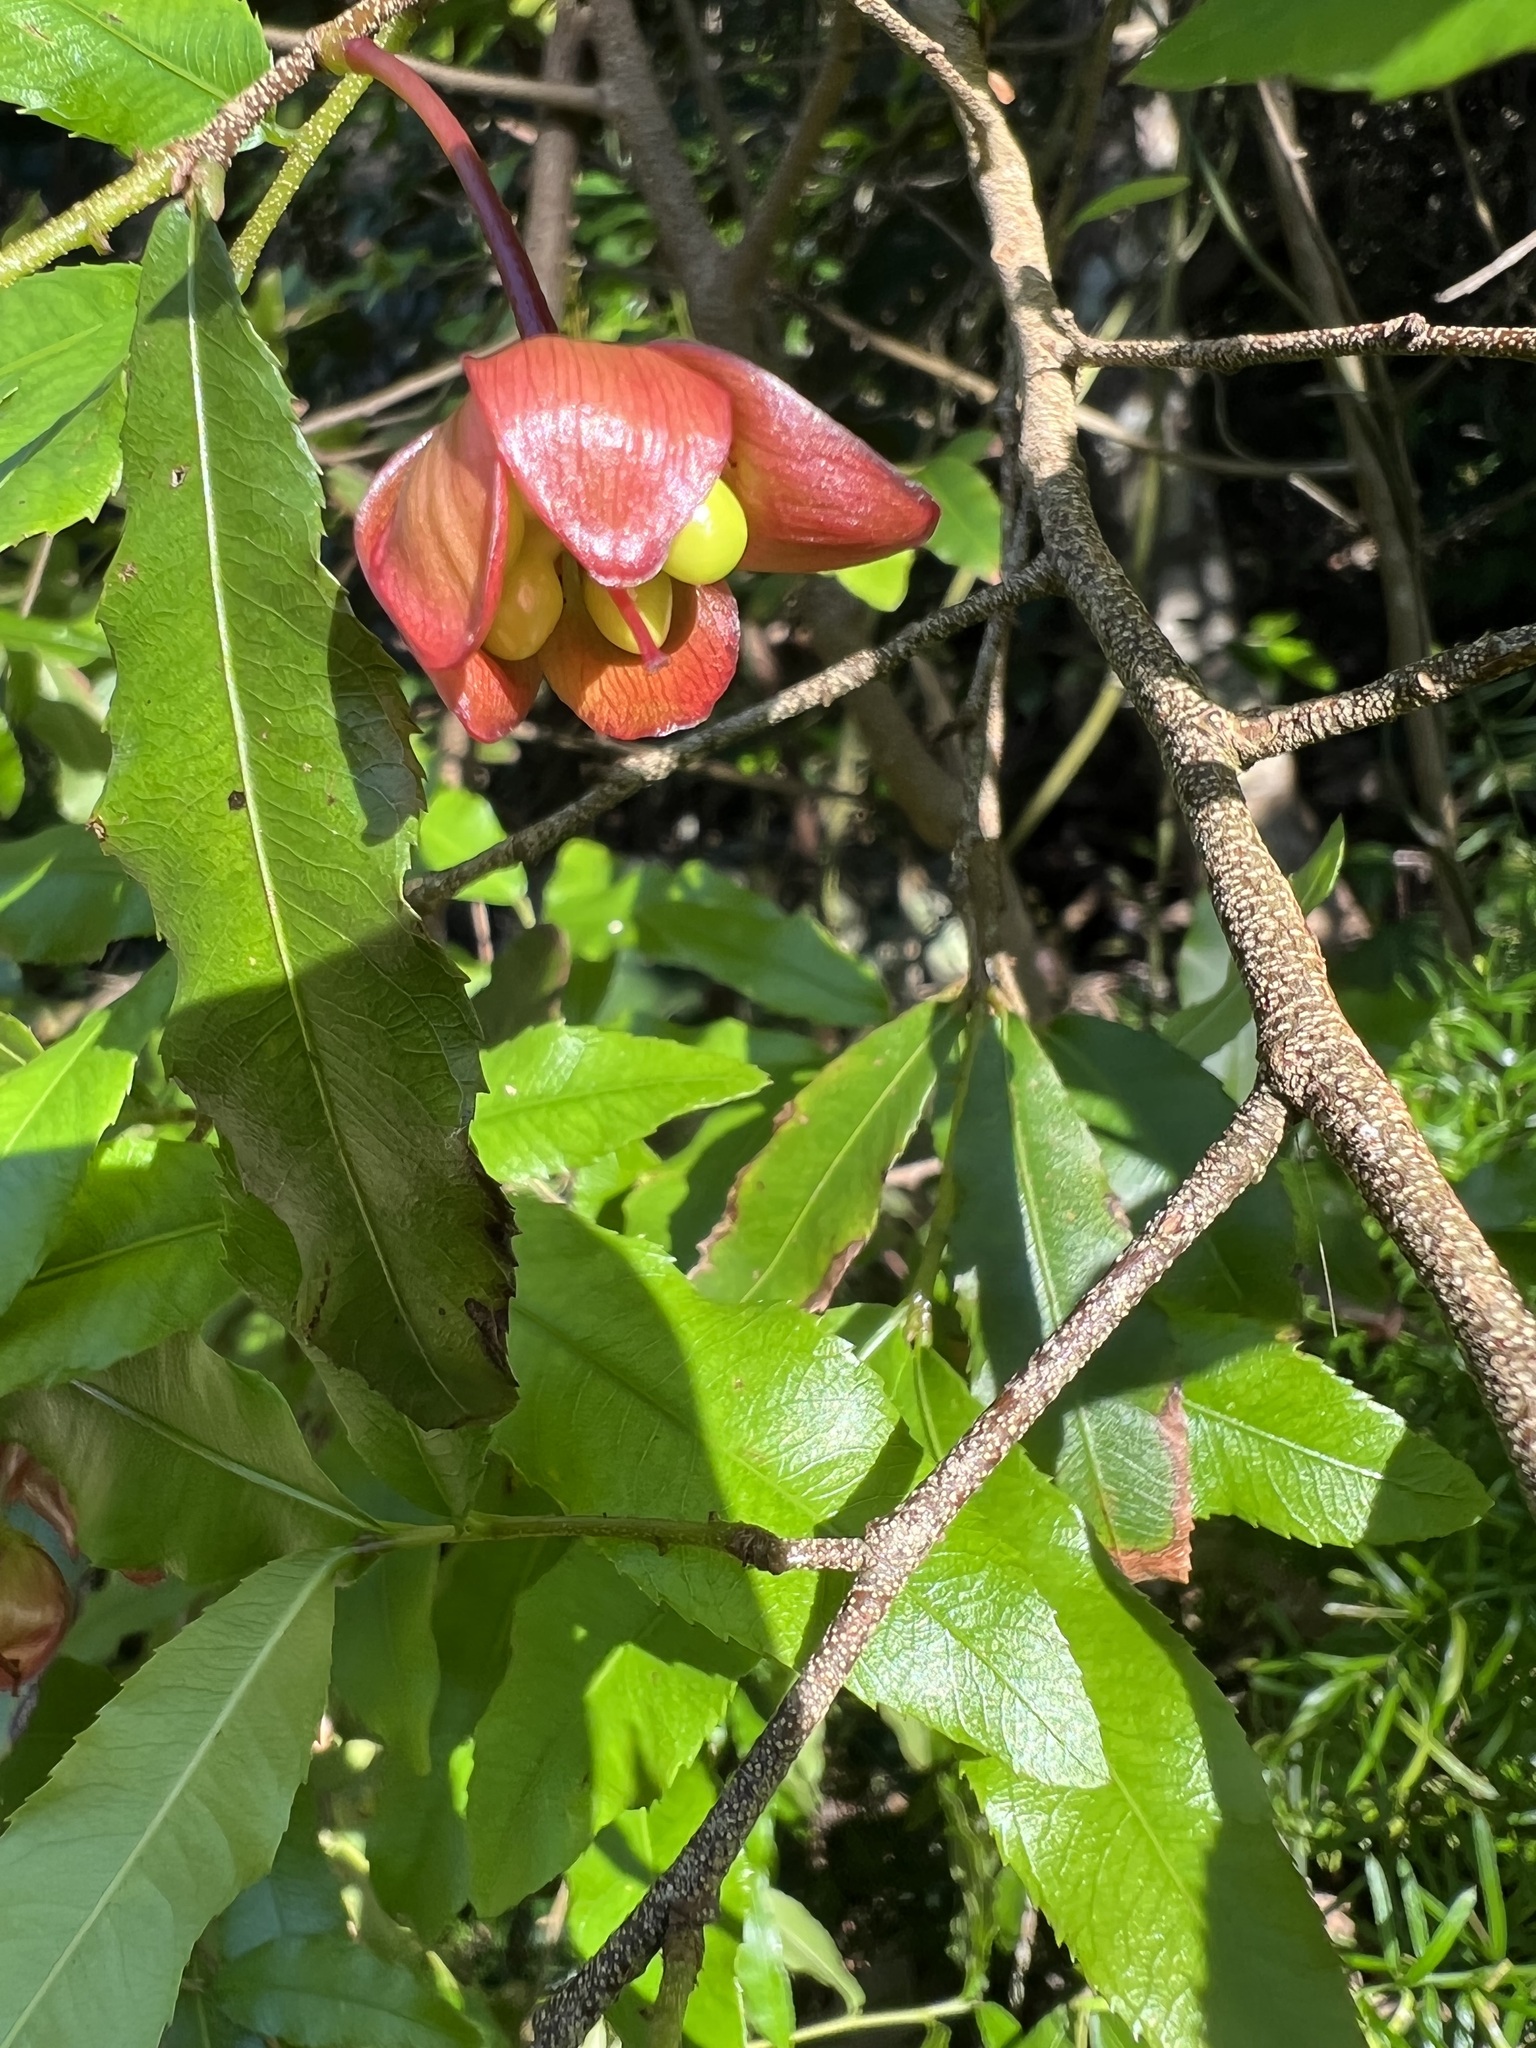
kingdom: Plantae
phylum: Tracheophyta
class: Magnoliopsida
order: Malpighiales
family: Ochnaceae
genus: Ochna
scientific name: Ochna serrulata
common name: Mickey mouse plant
